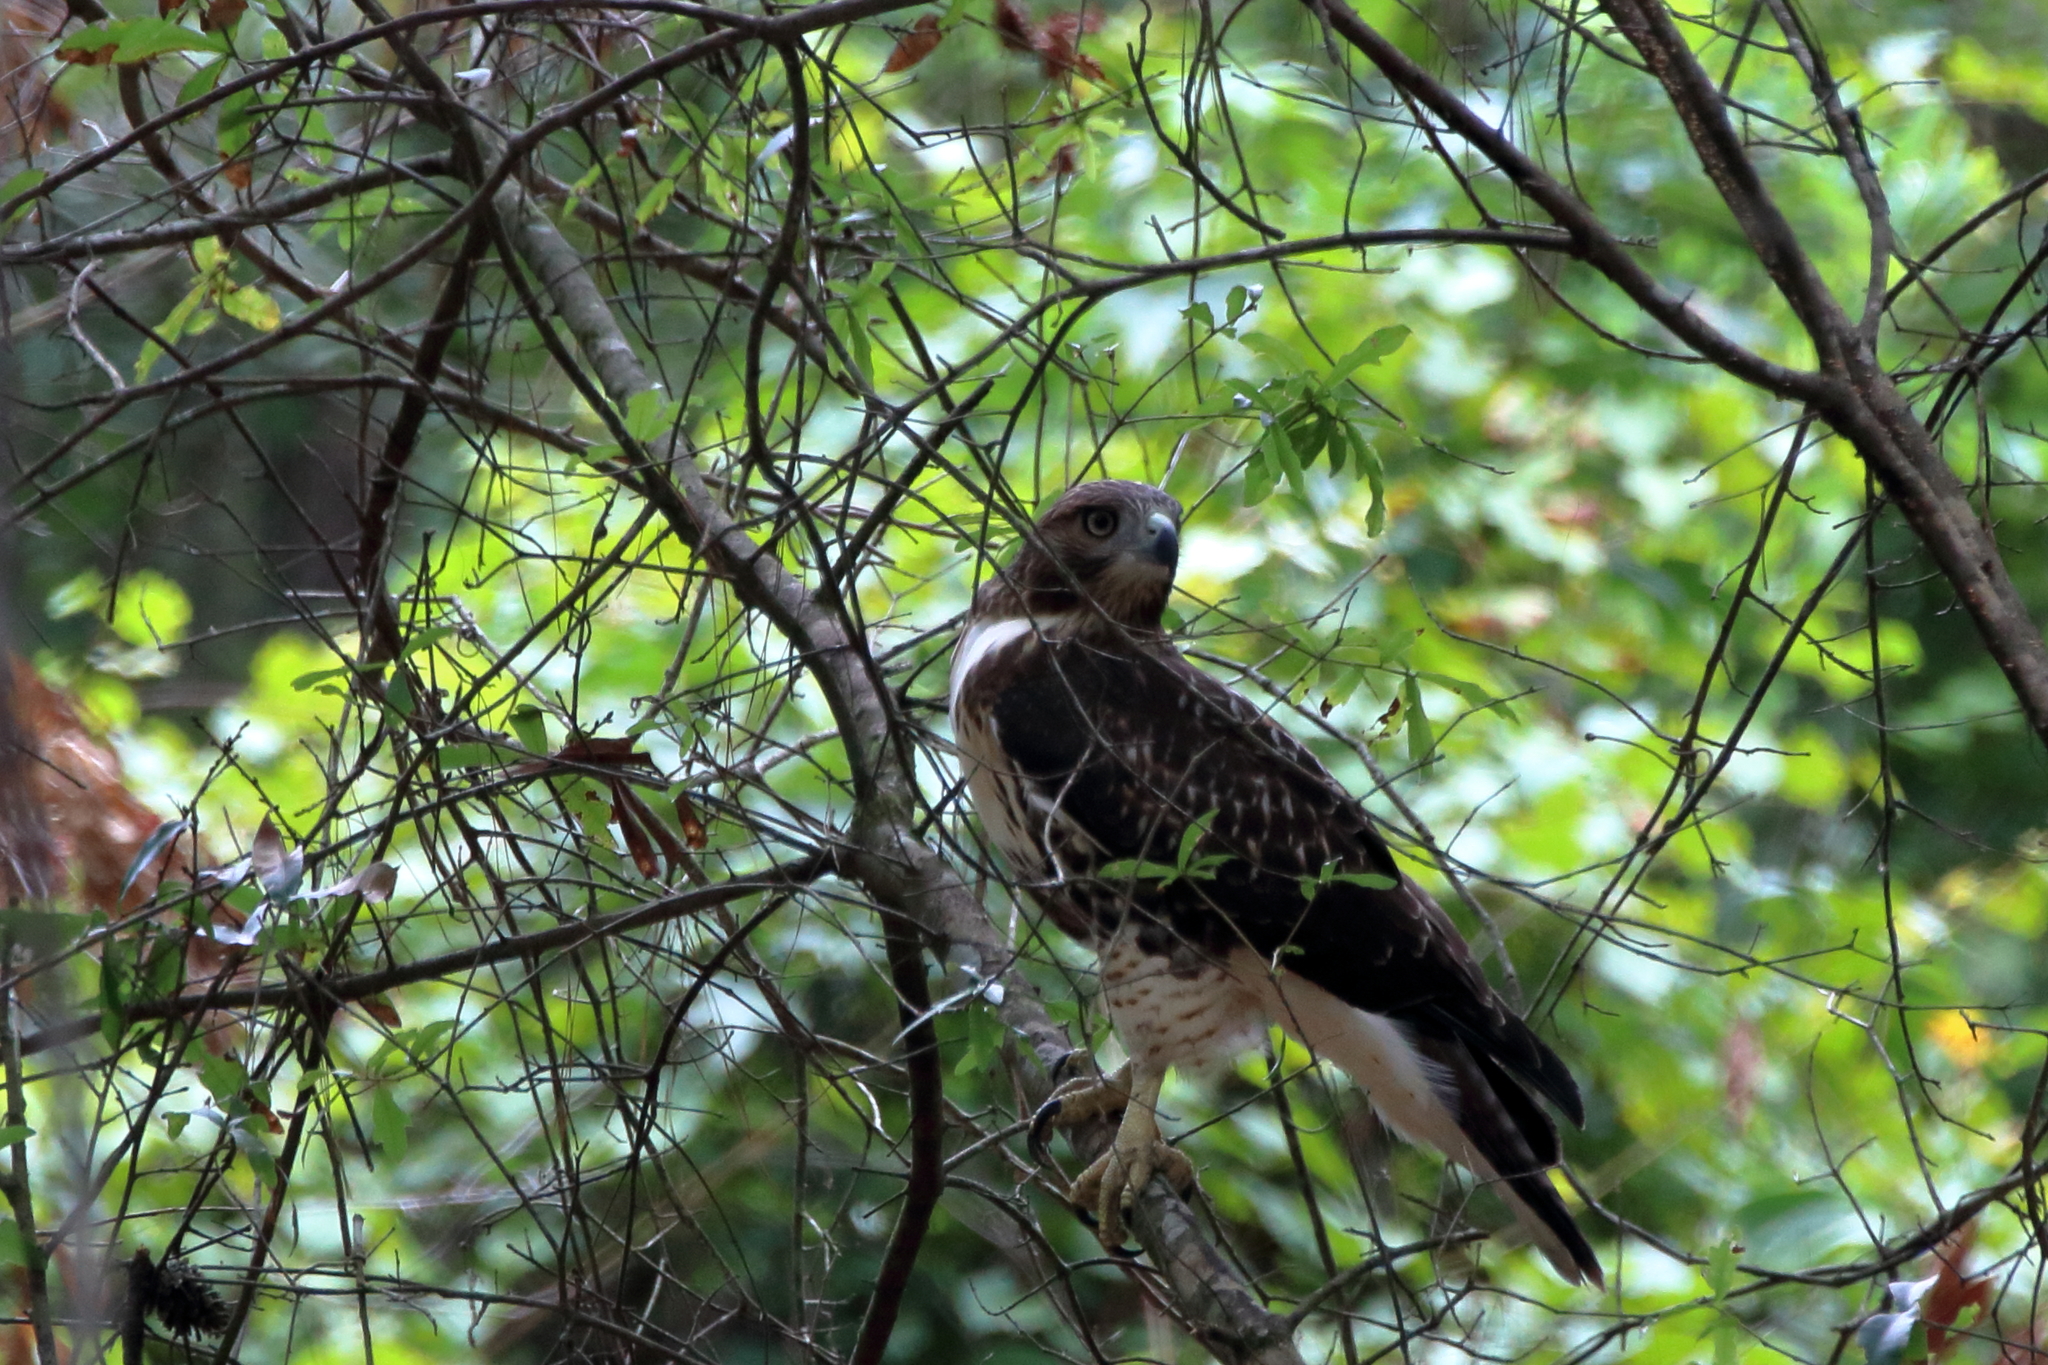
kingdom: Animalia
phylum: Chordata
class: Aves
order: Accipitriformes
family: Accipitridae
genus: Buteo
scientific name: Buteo jamaicensis
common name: Red-tailed hawk
